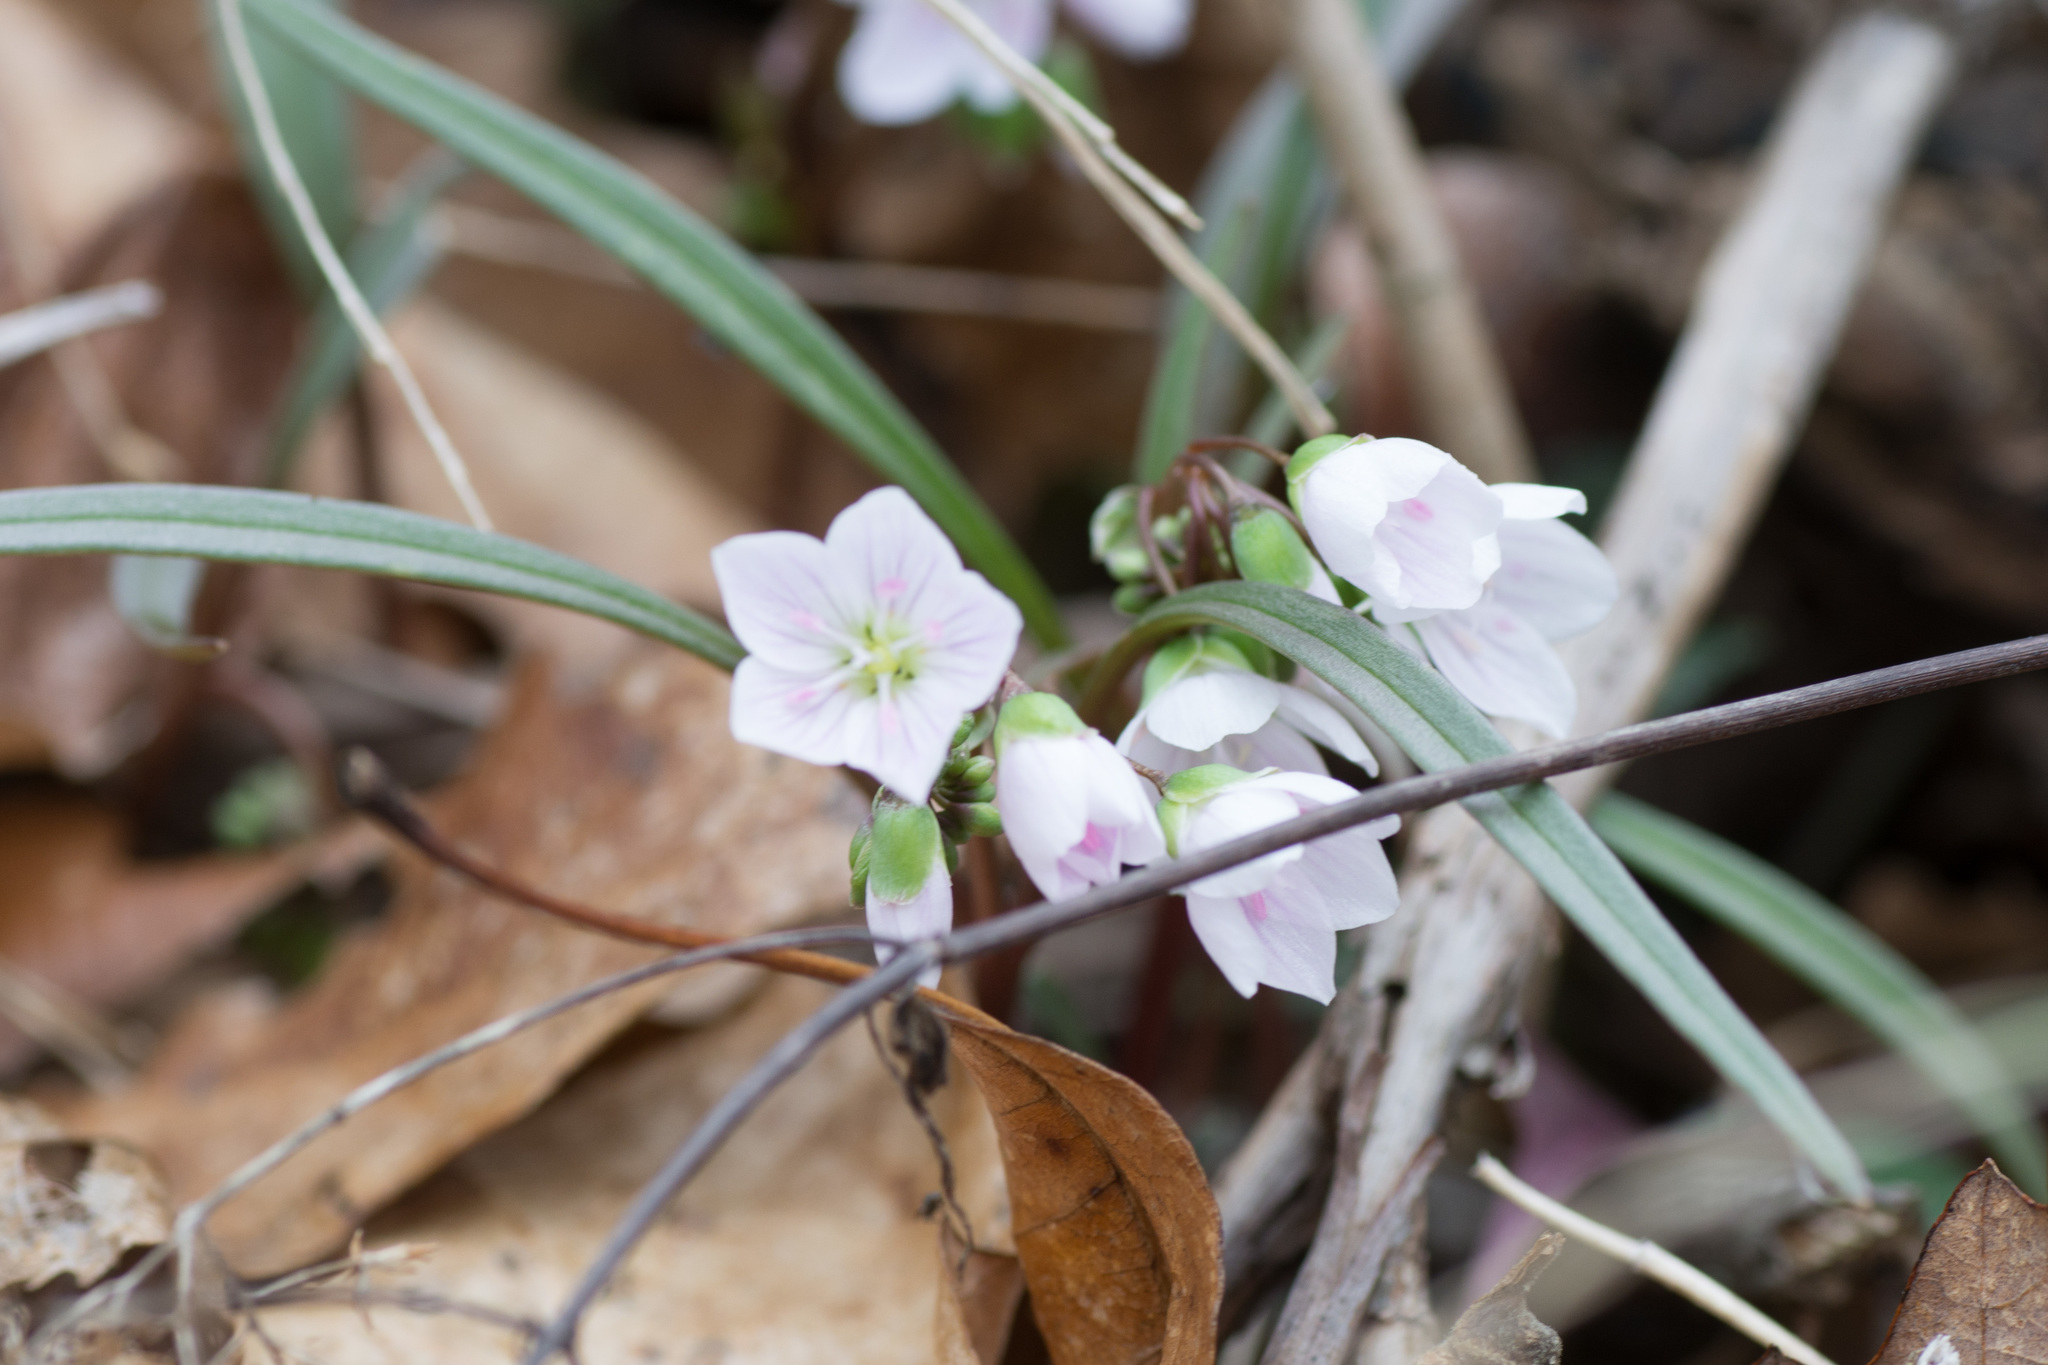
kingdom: Plantae
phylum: Tracheophyta
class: Magnoliopsida
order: Caryophyllales
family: Montiaceae
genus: Claytonia
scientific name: Claytonia virginica
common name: Virginia springbeauty
